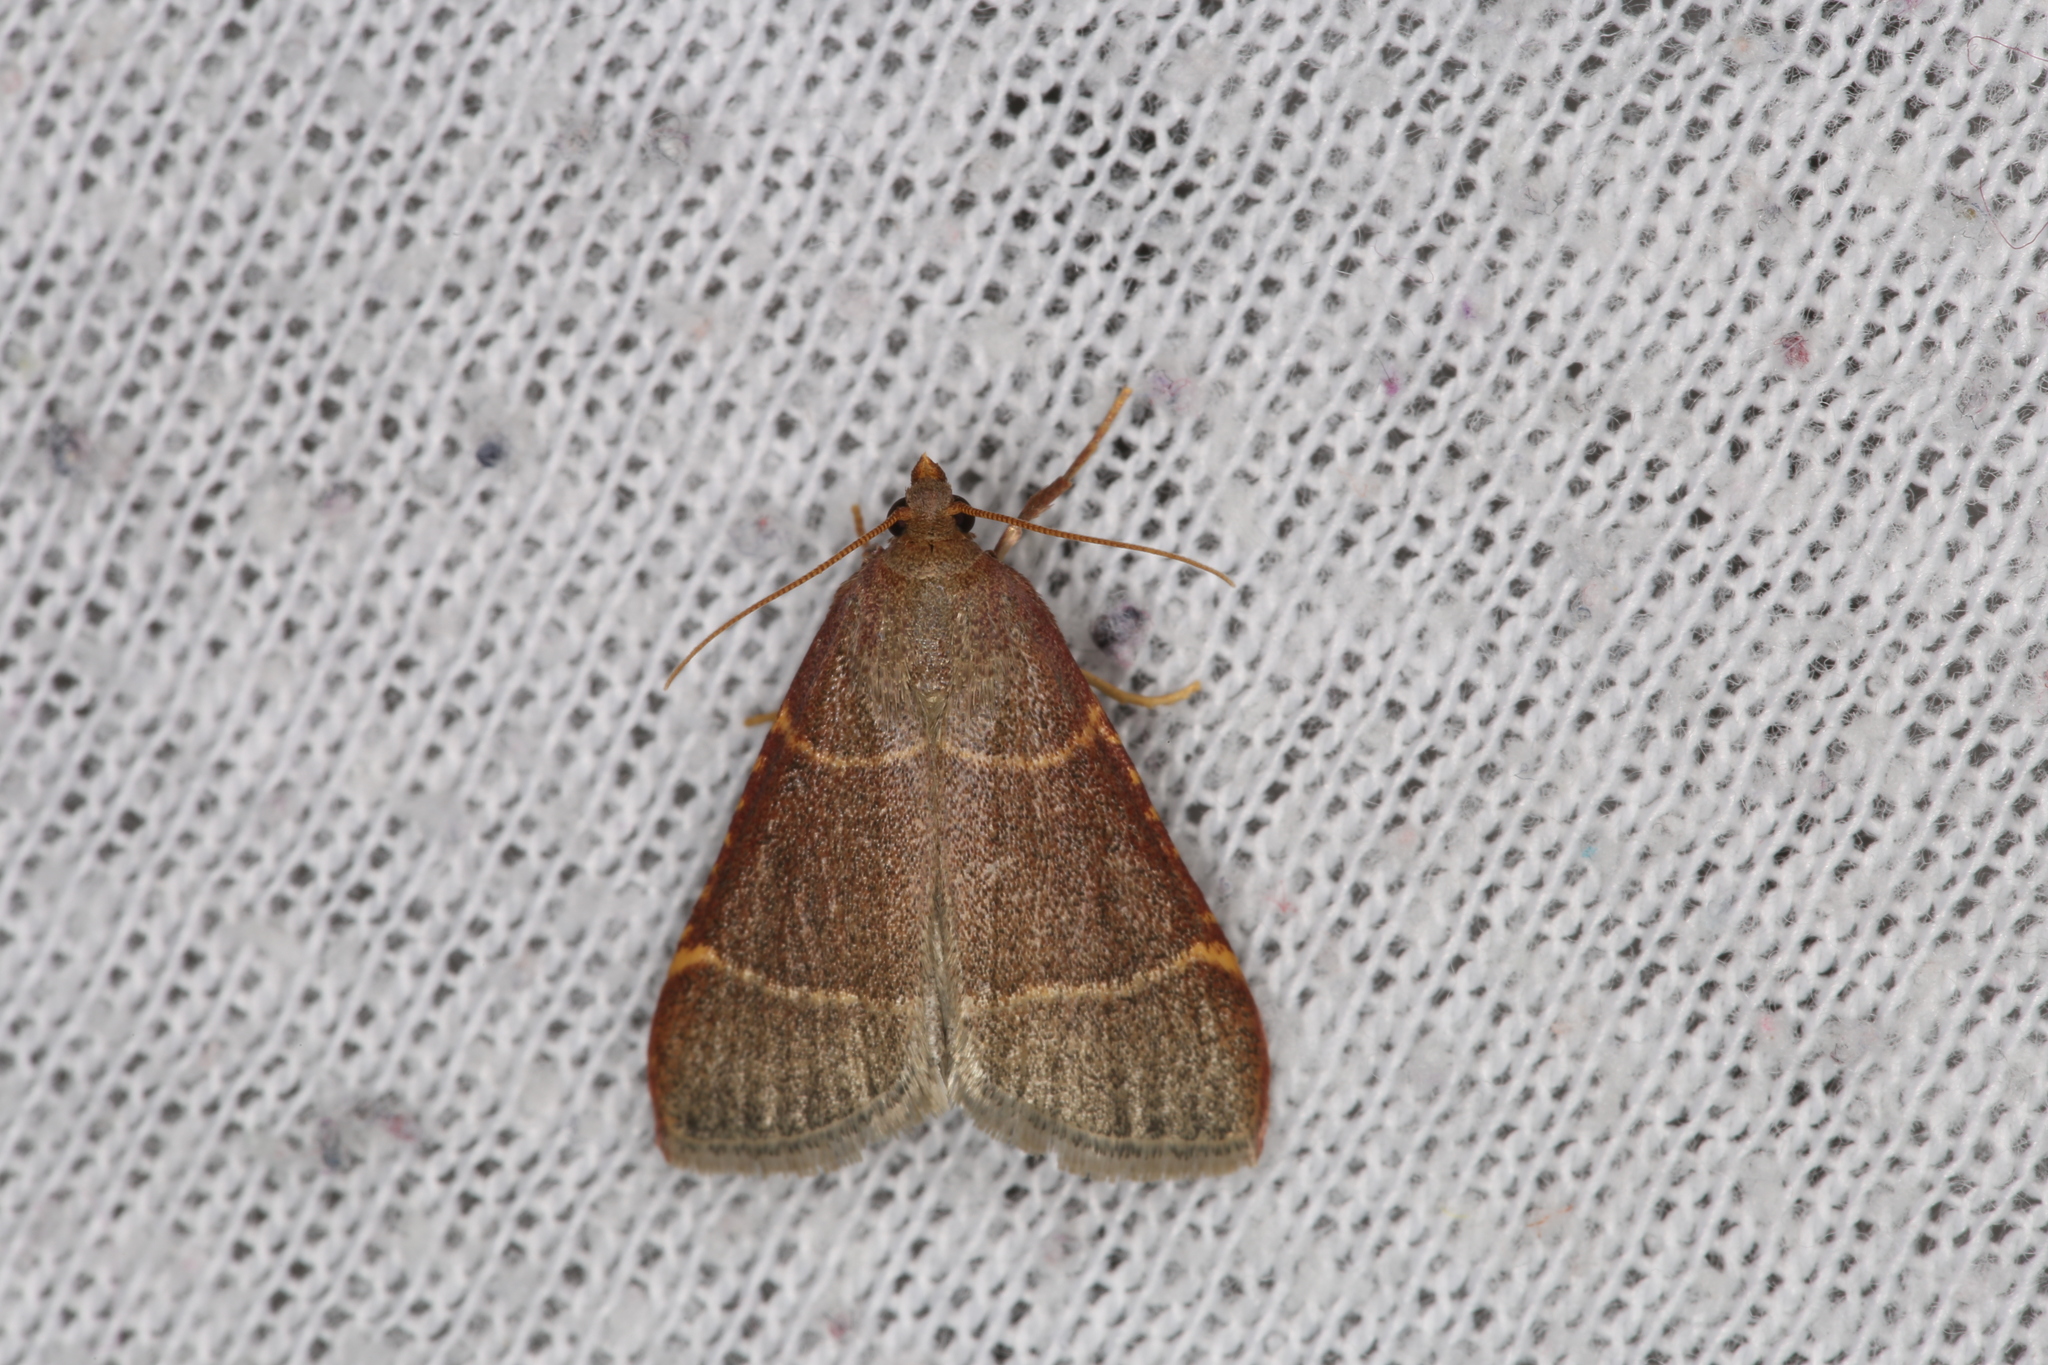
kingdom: Animalia
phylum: Arthropoda
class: Insecta
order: Lepidoptera
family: Pyralidae
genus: Hypsopygia
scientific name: Hypsopygia glaucinalis
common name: Double-striped tabby
